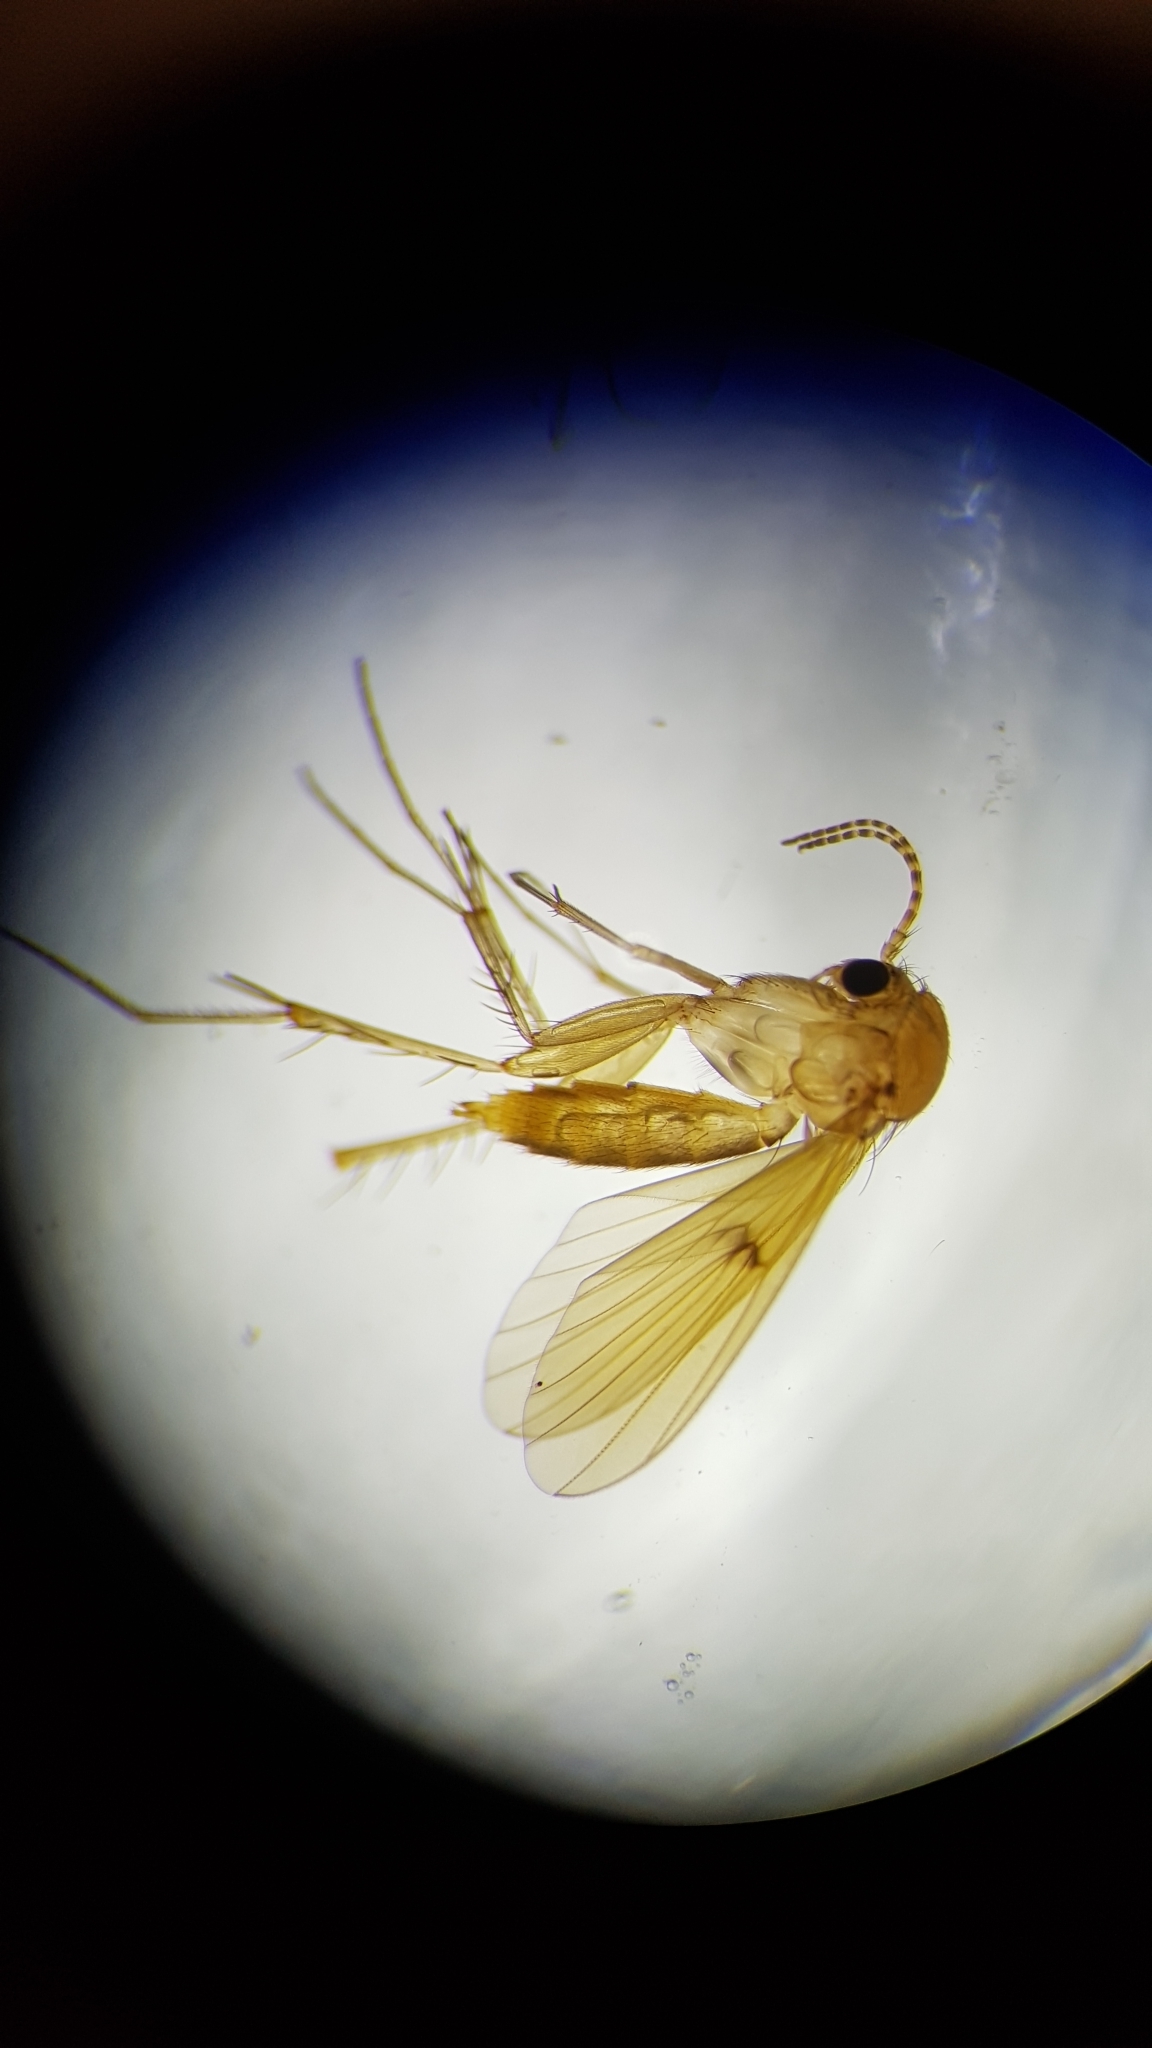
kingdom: Animalia
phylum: Arthropoda
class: Insecta
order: Diptera
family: Mycetophilidae
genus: Mycetophila
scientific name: Mycetophila fagi
